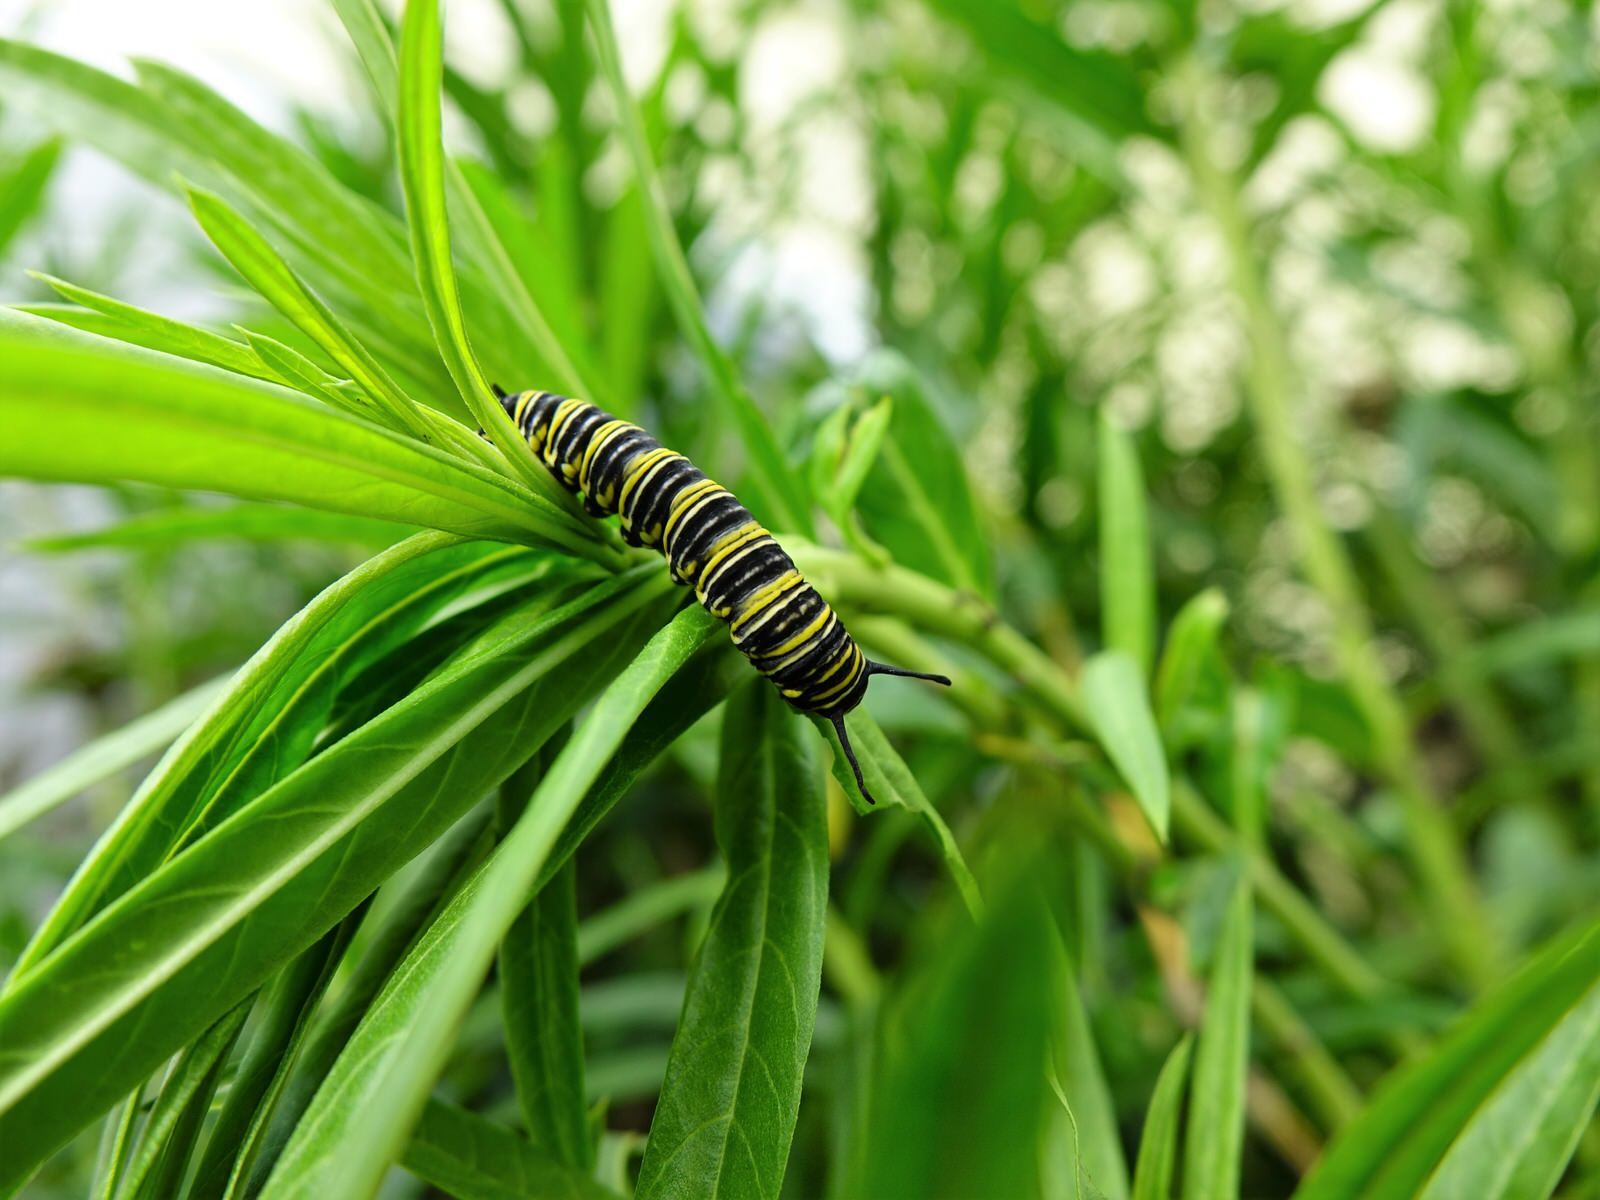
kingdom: Animalia
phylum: Arthropoda
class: Insecta
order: Lepidoptera
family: Nymphalidae
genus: Danaus
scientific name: Danaus plexippus
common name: Monarch
